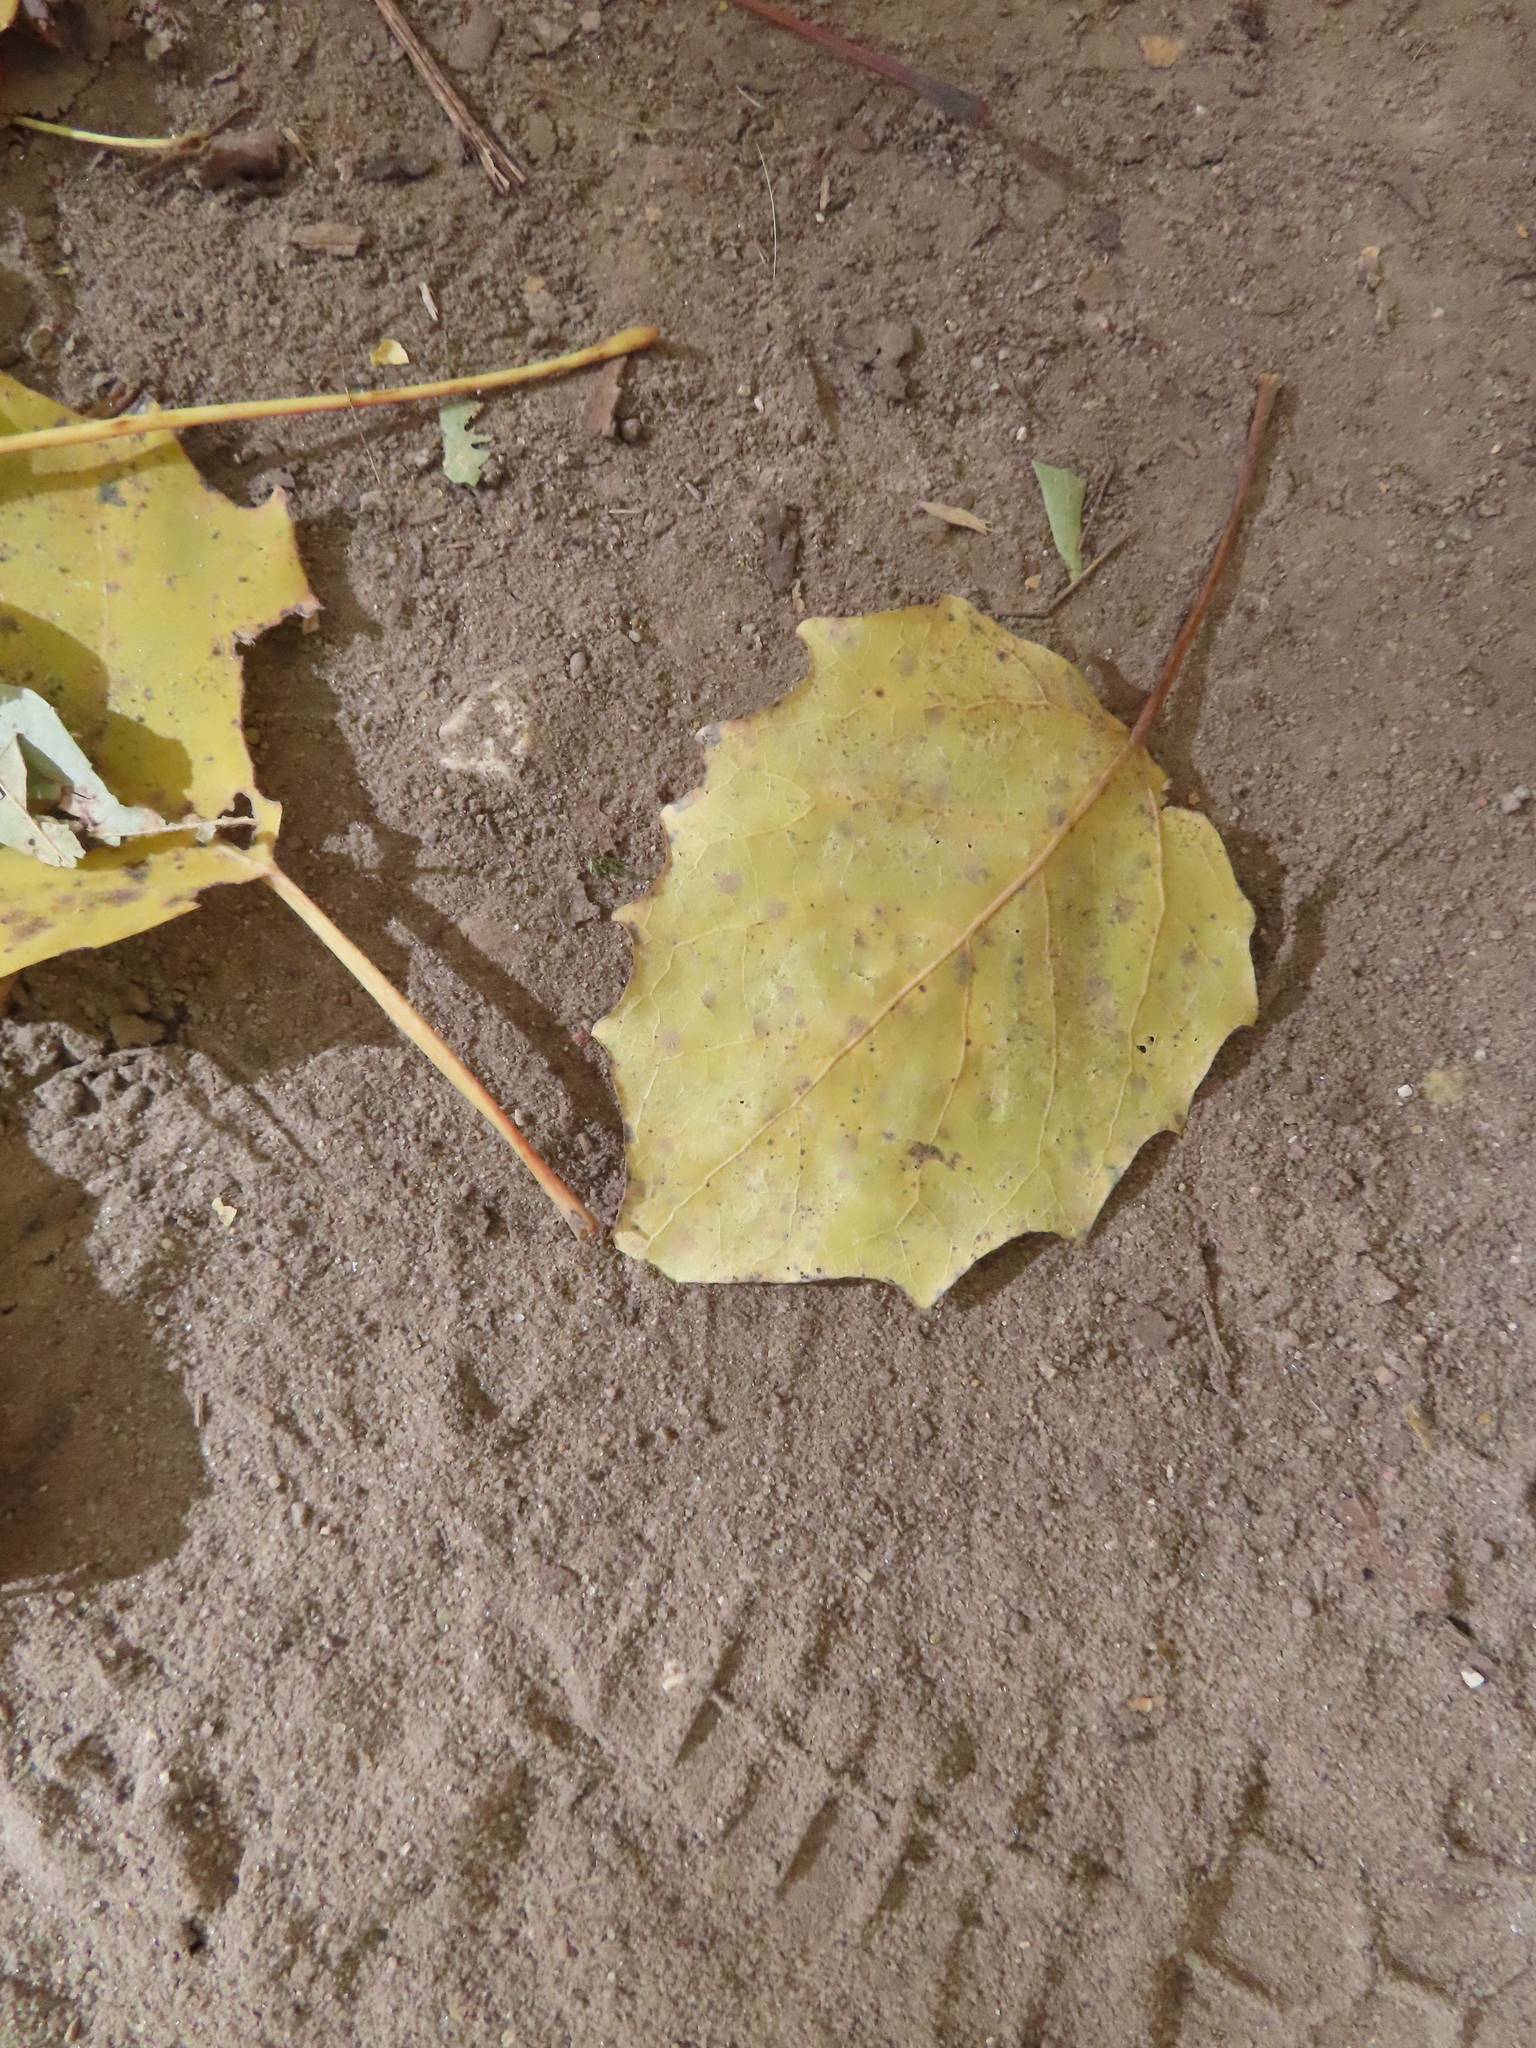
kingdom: Plantae
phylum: Tracheophyta
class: Magnoliopsida
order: Malpighiales
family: Salicaceae
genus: Populus
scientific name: Populus grandidentata
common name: Bigtooth aspen
